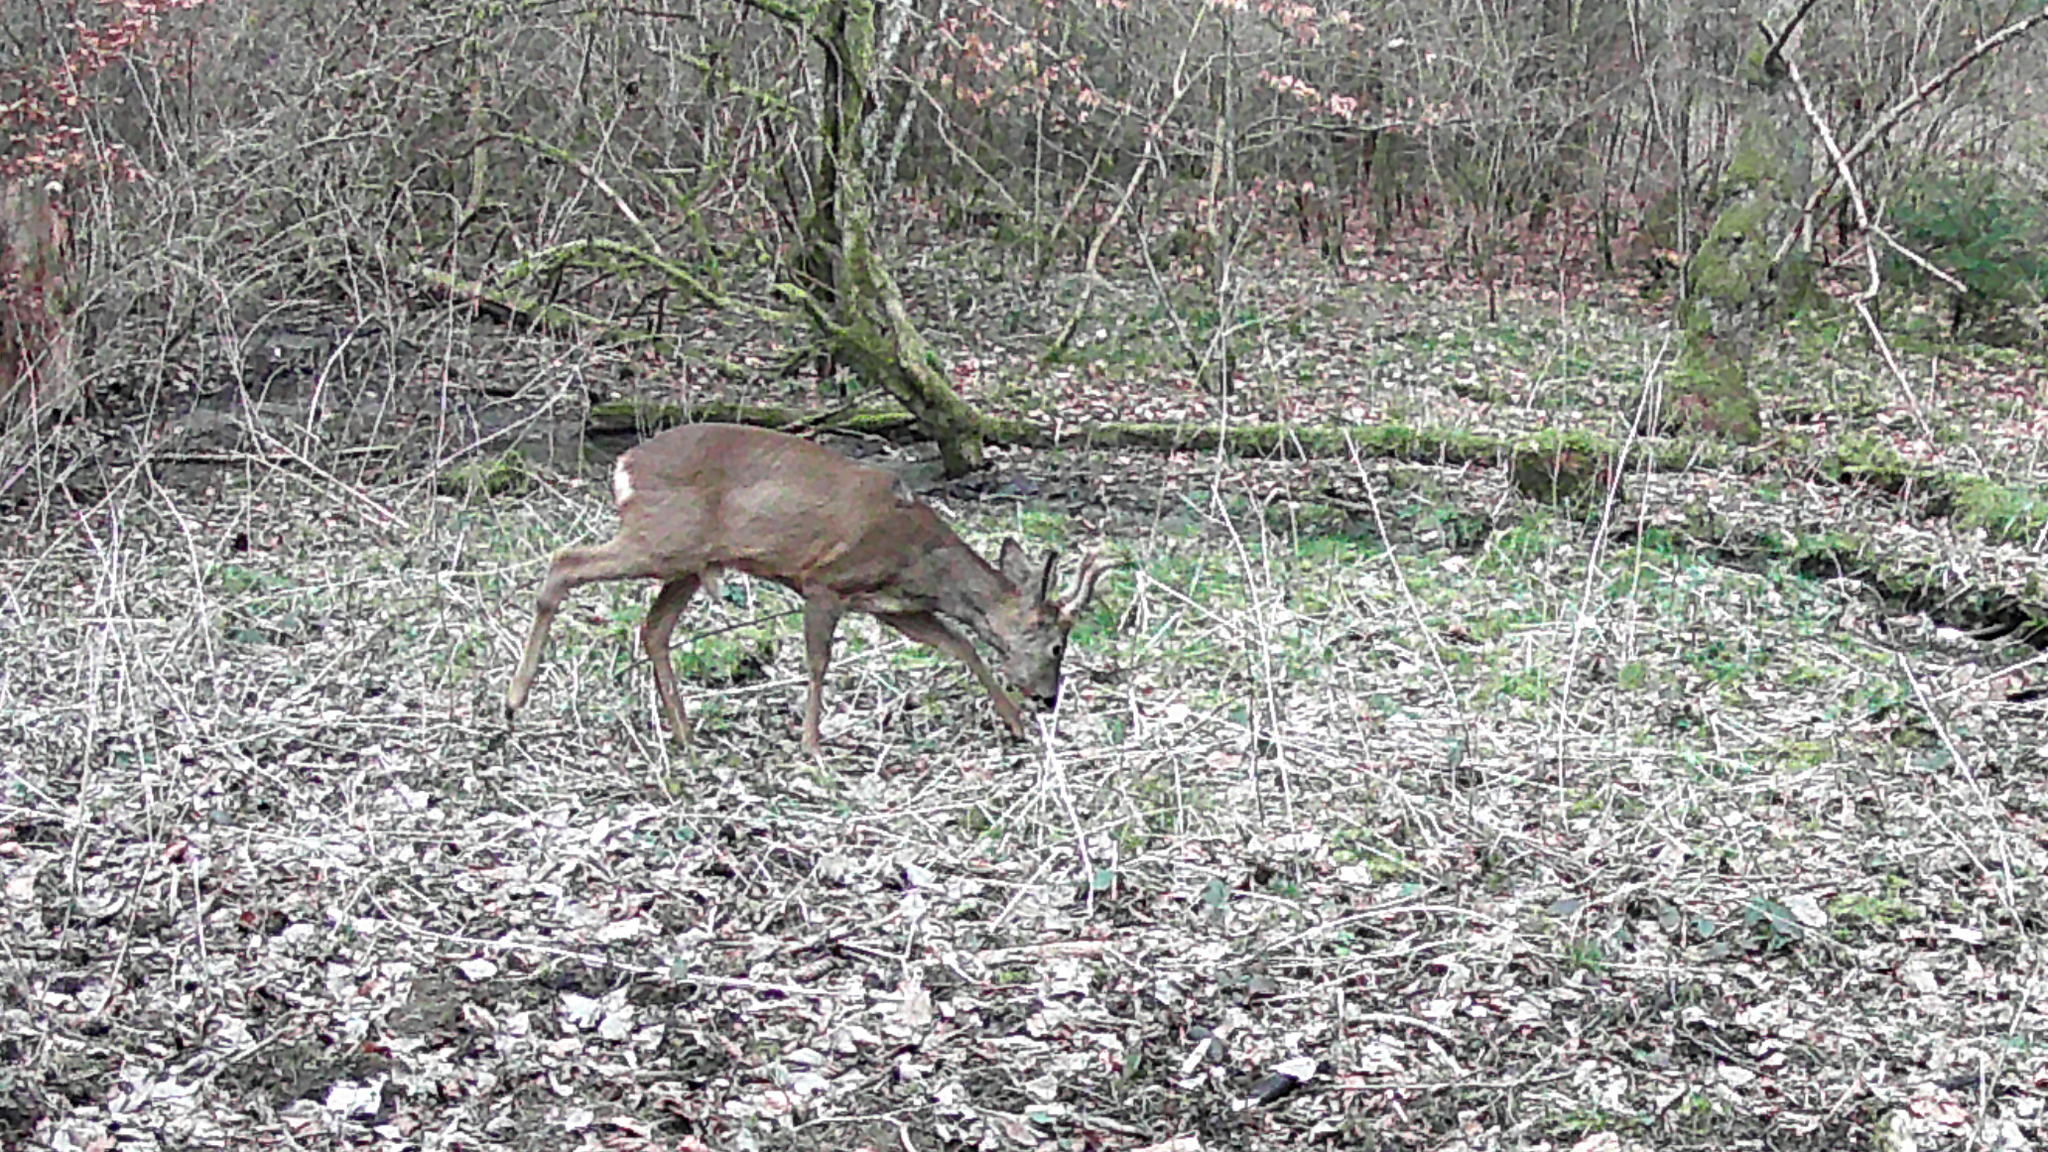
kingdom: Animalia
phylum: Chordata
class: Mammalia
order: Artiodactyla
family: Cervidae
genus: Capreolus
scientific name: Capreolus capreolus
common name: Western roe deer
